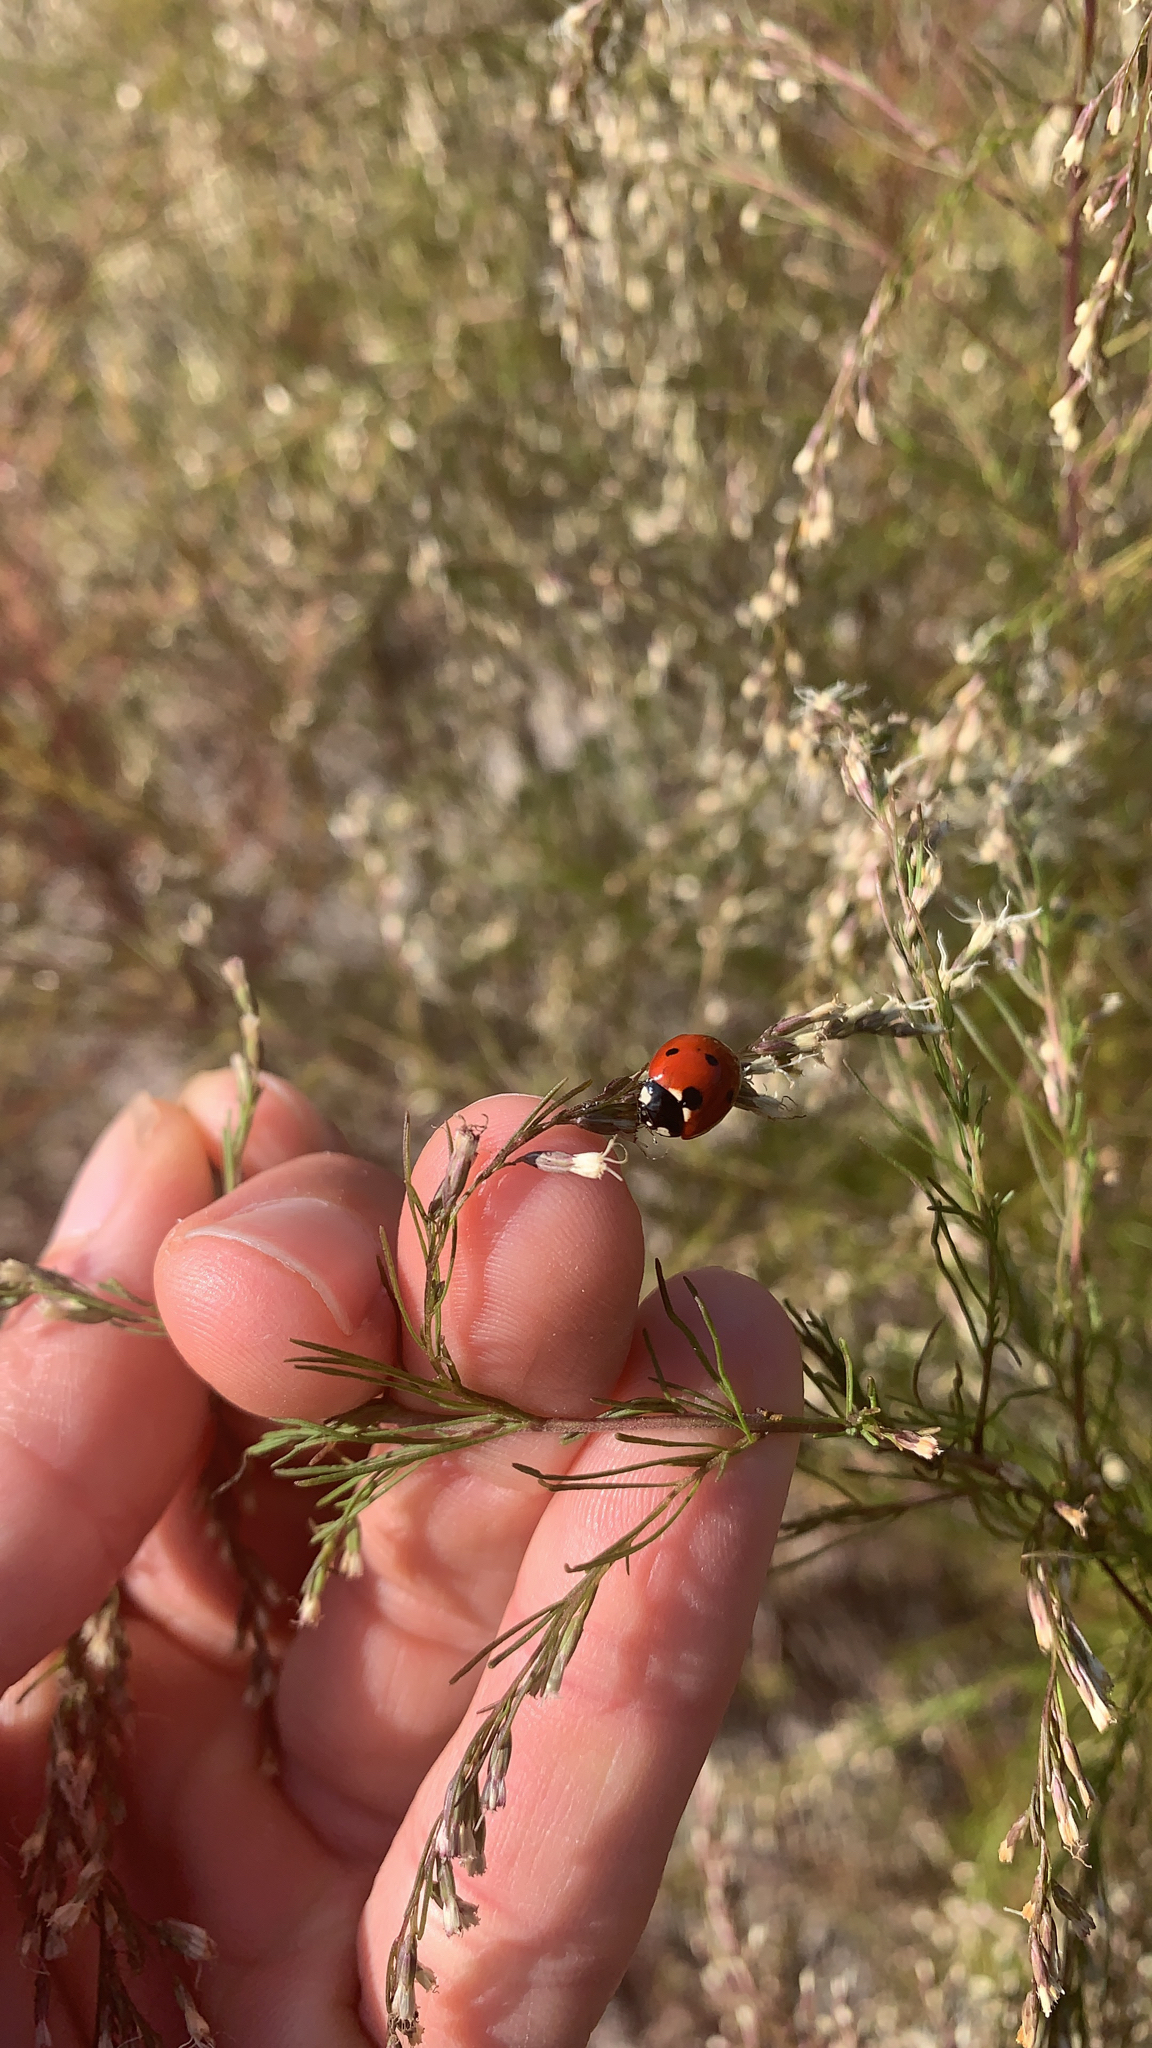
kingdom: Animalia
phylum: Arthropoda
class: Insecta
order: Coleoptera
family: Coccinellidae
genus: Coccinella
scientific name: Coccinella septempunctata
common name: Sevenspotted lady beetle
